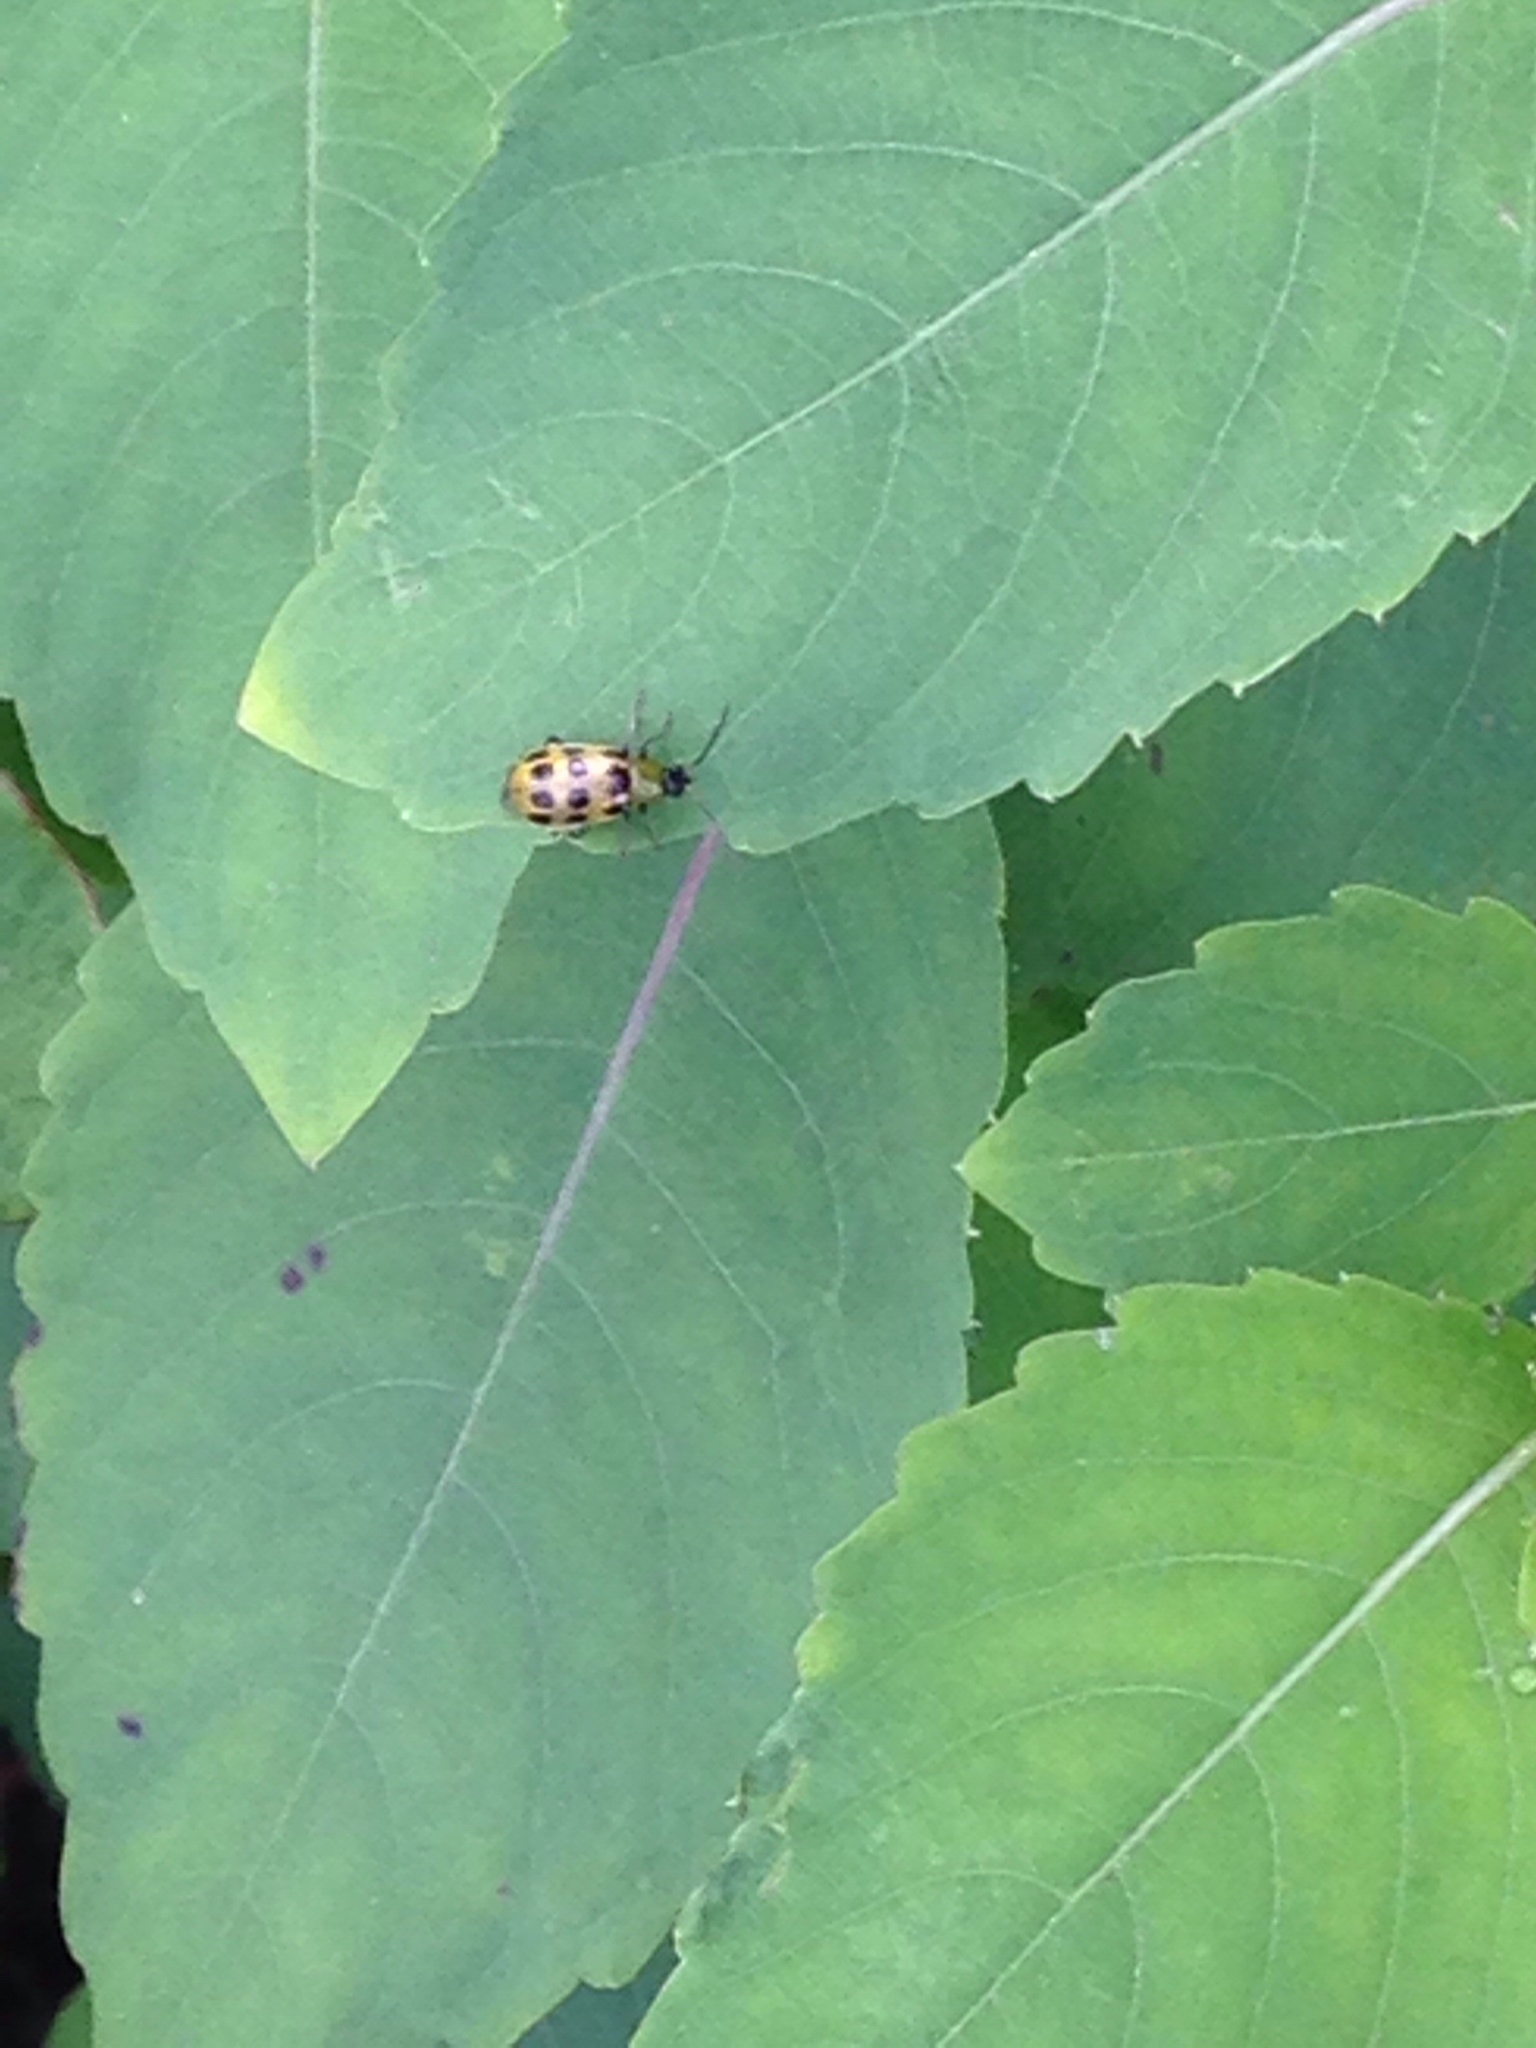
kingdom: Animalia
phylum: Arthropoda
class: Insecta
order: Coleoptera
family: Chrysomelidae
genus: Diabrotica
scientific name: Diabrotica undecimpunctata
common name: Spotted cucumber beetle
